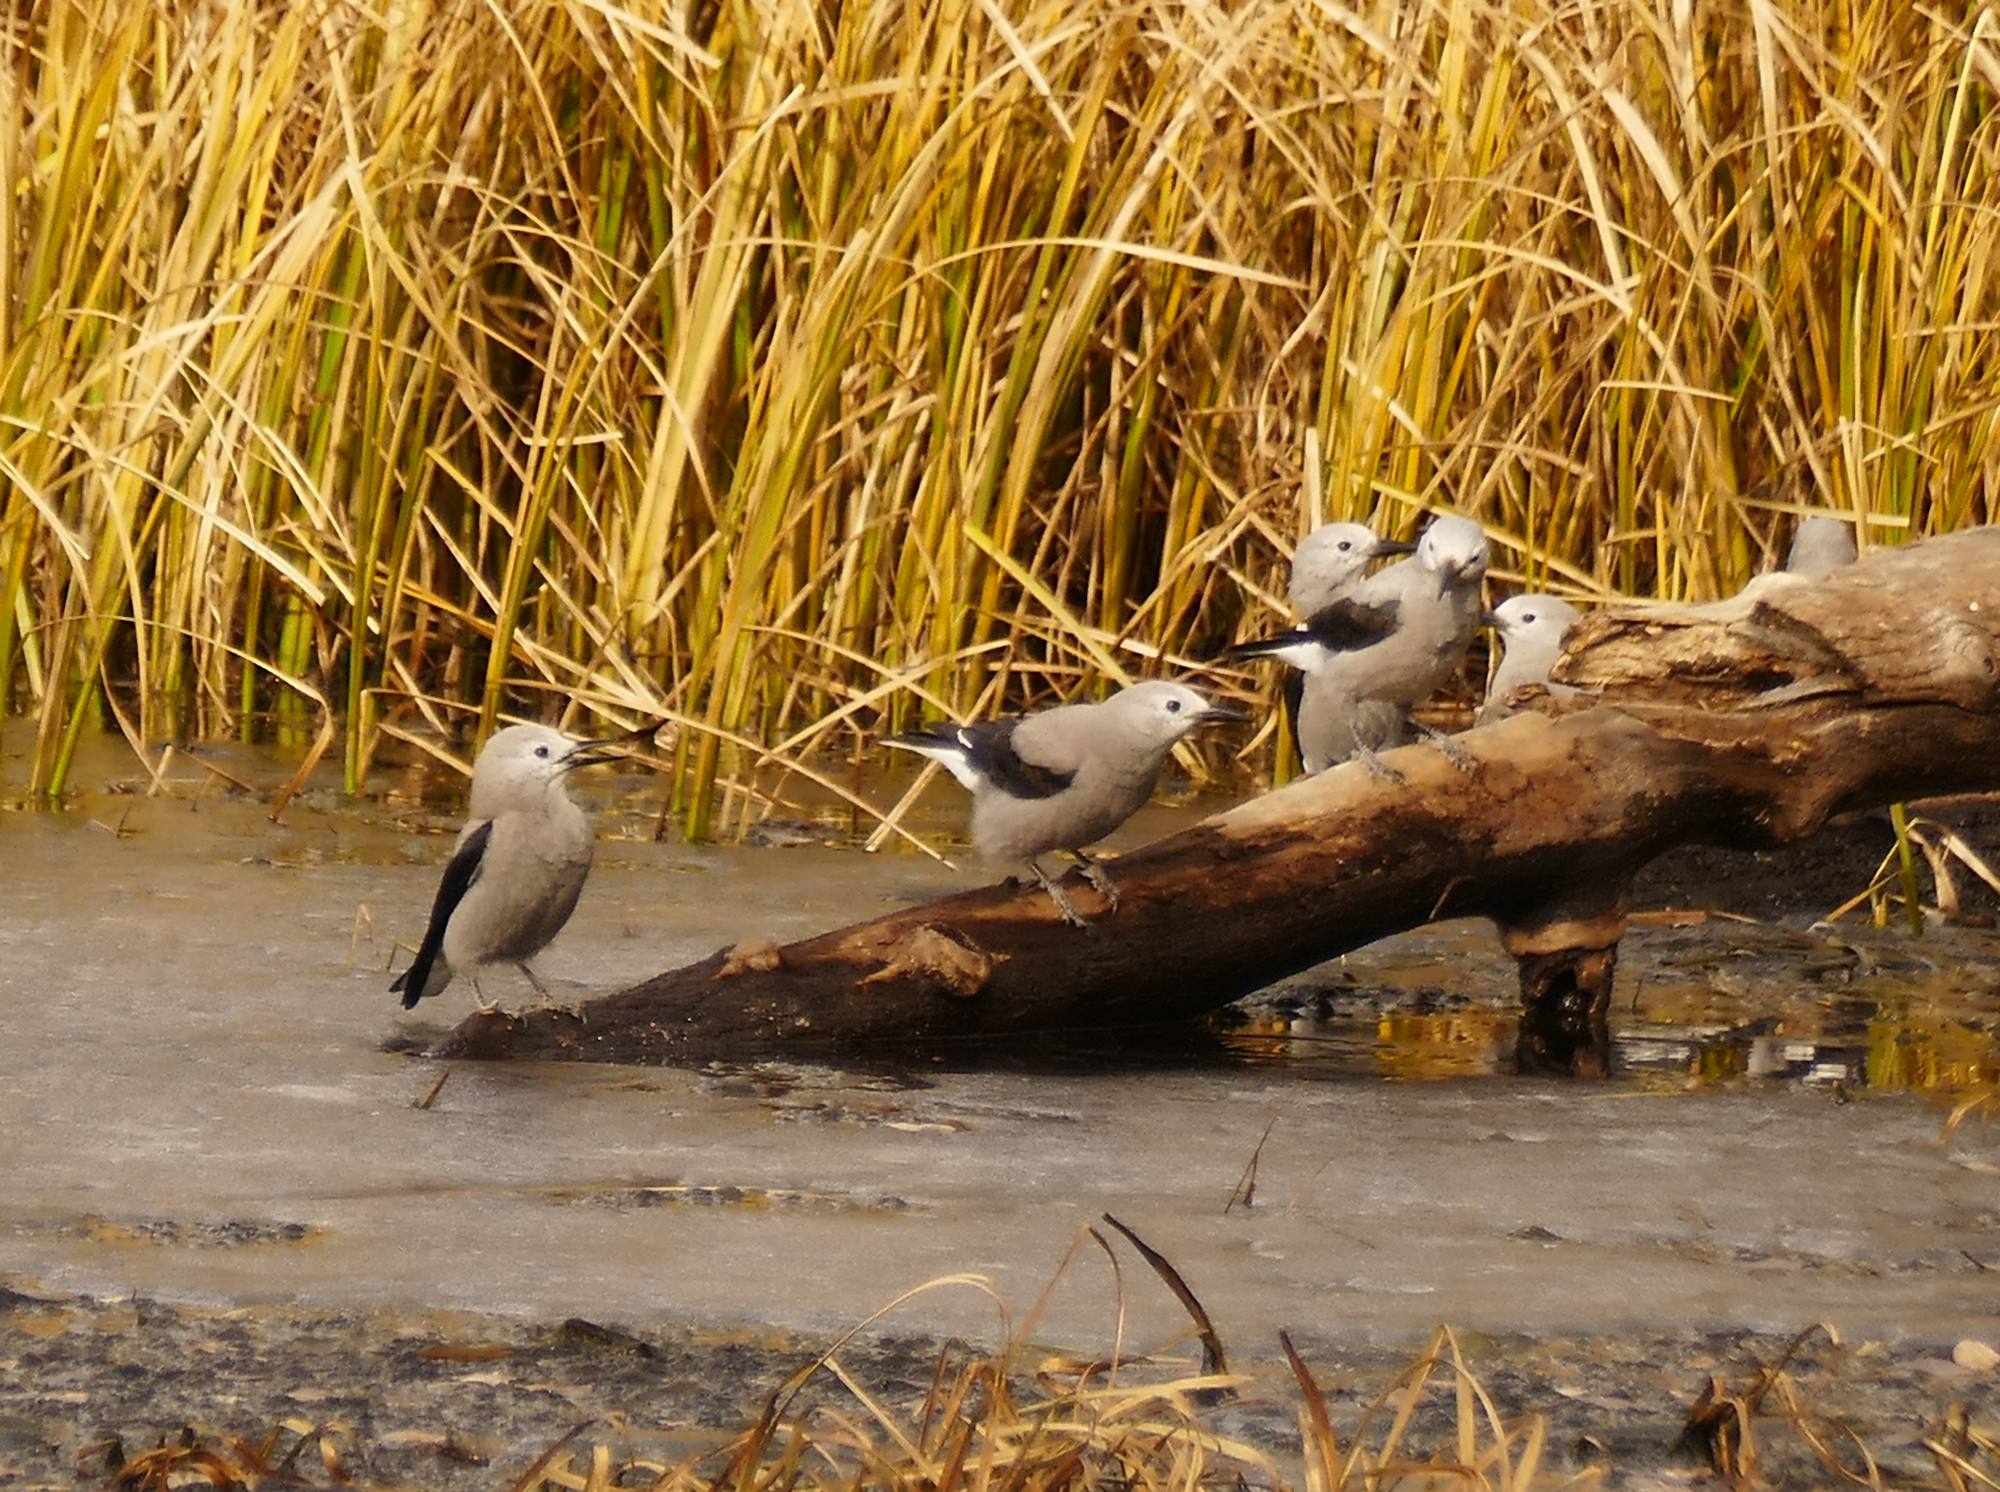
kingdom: Animalia
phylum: Chordata
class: Aves
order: Passeriformes
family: Corvidae
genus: Nucifraga
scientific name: Nucifraga columbiana
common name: Clark's nutcracker
